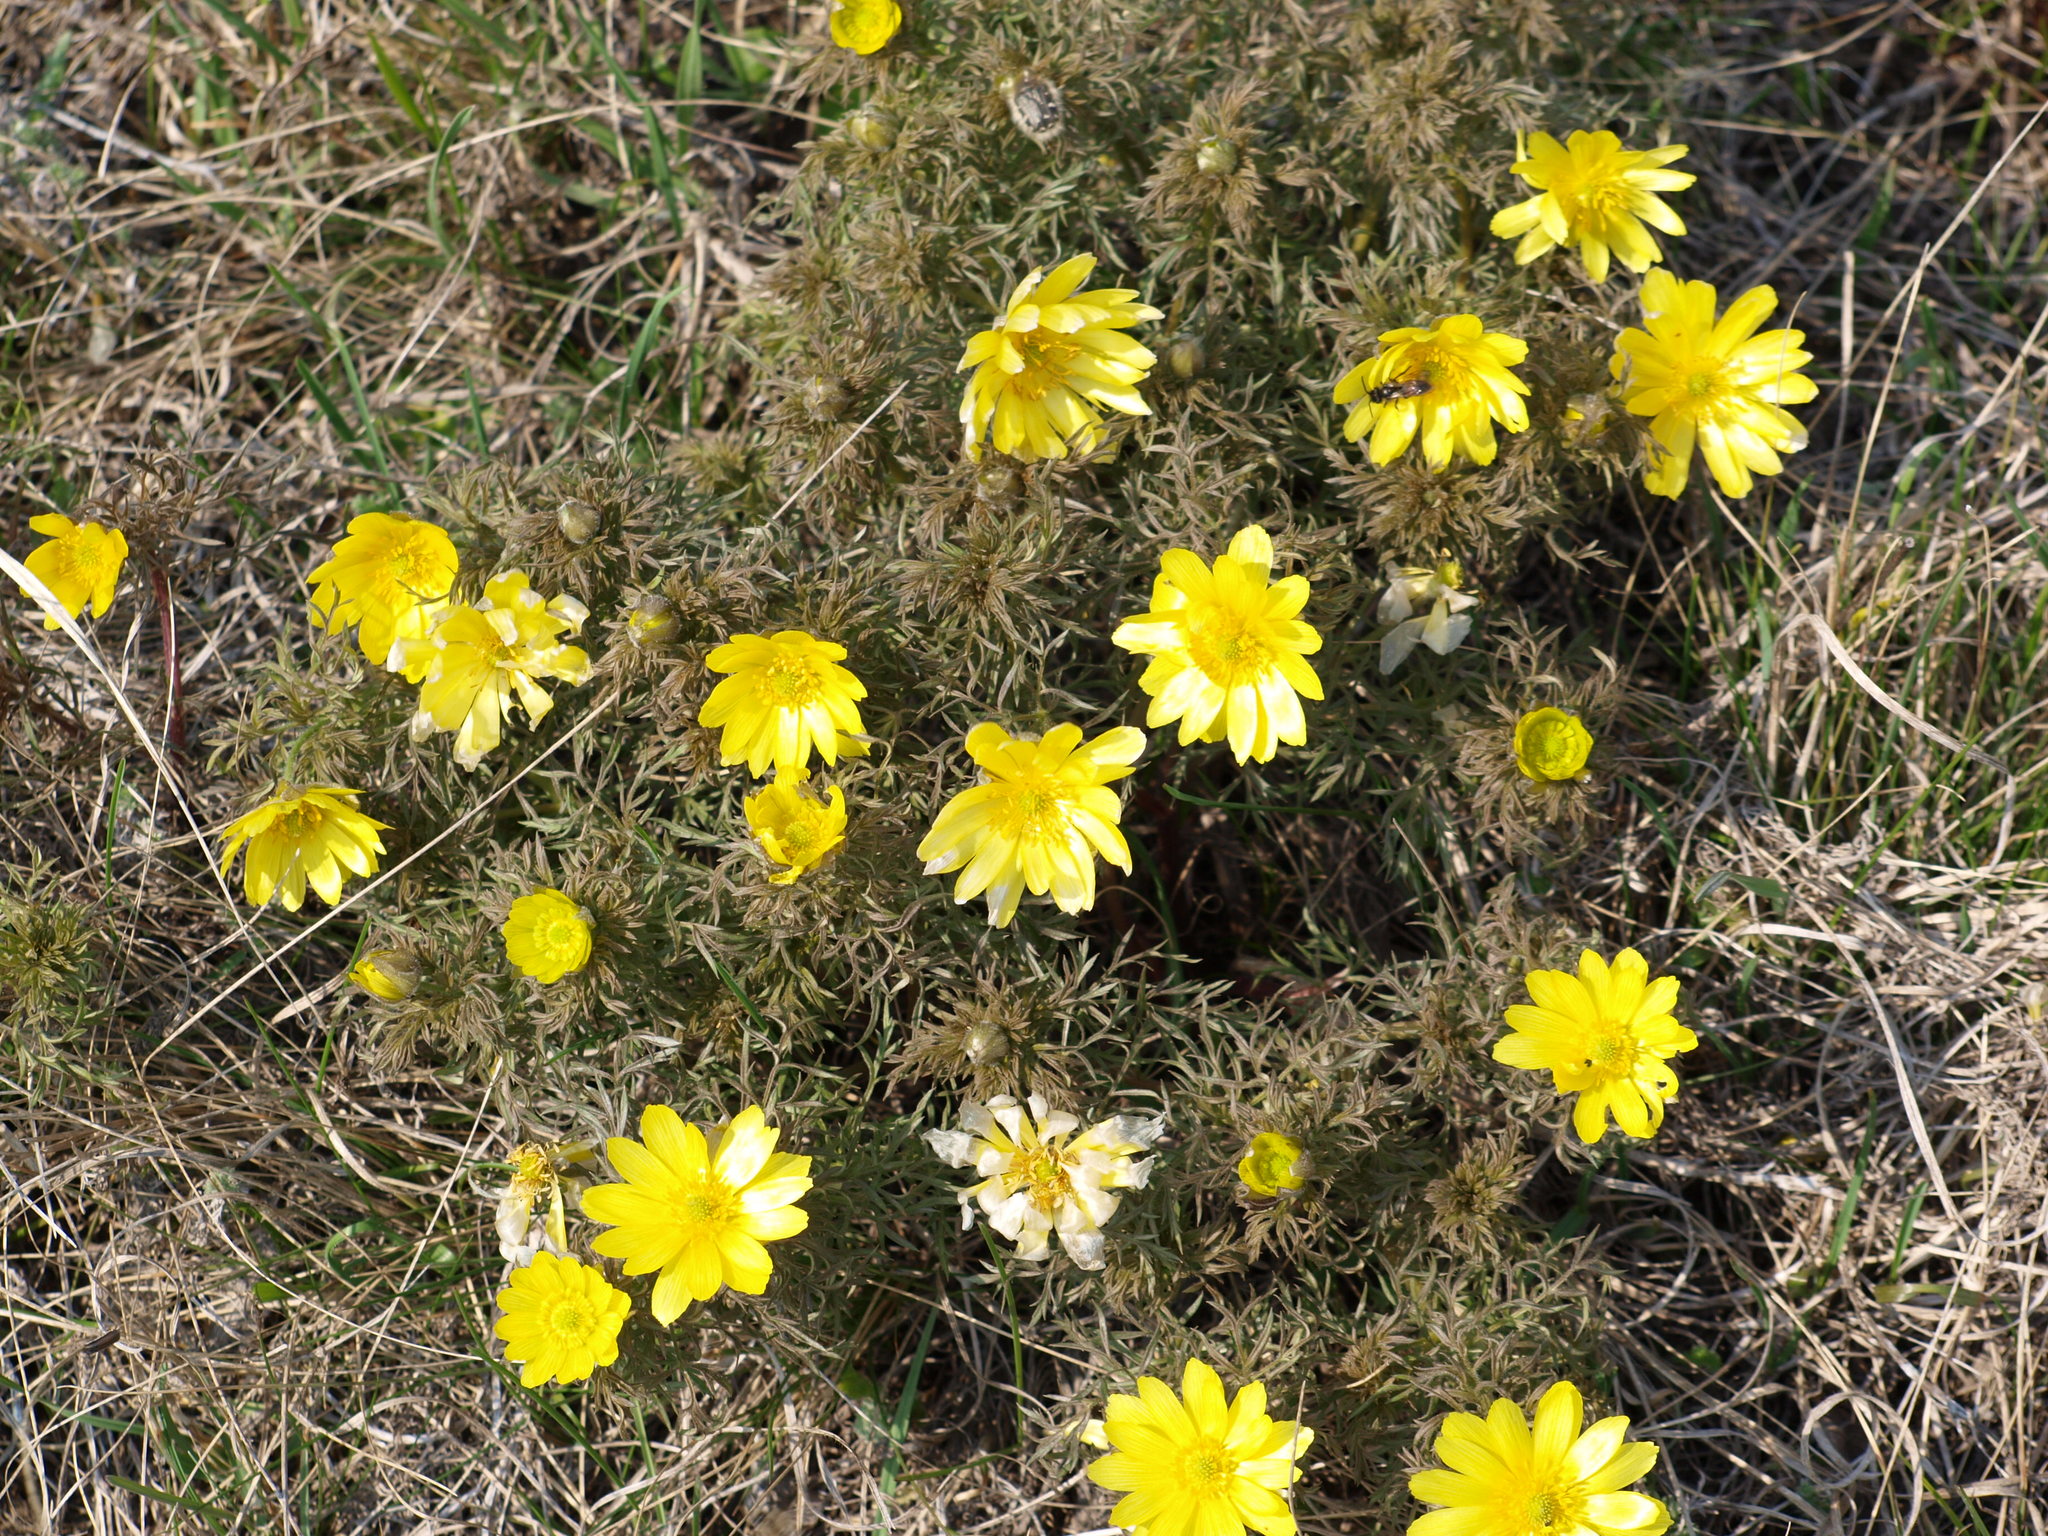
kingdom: Plantae
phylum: Tracheophyta
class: Magnoliopsida
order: Ranunculales
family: Ranunculaceae
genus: Adonis
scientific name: Adonis volgensis
